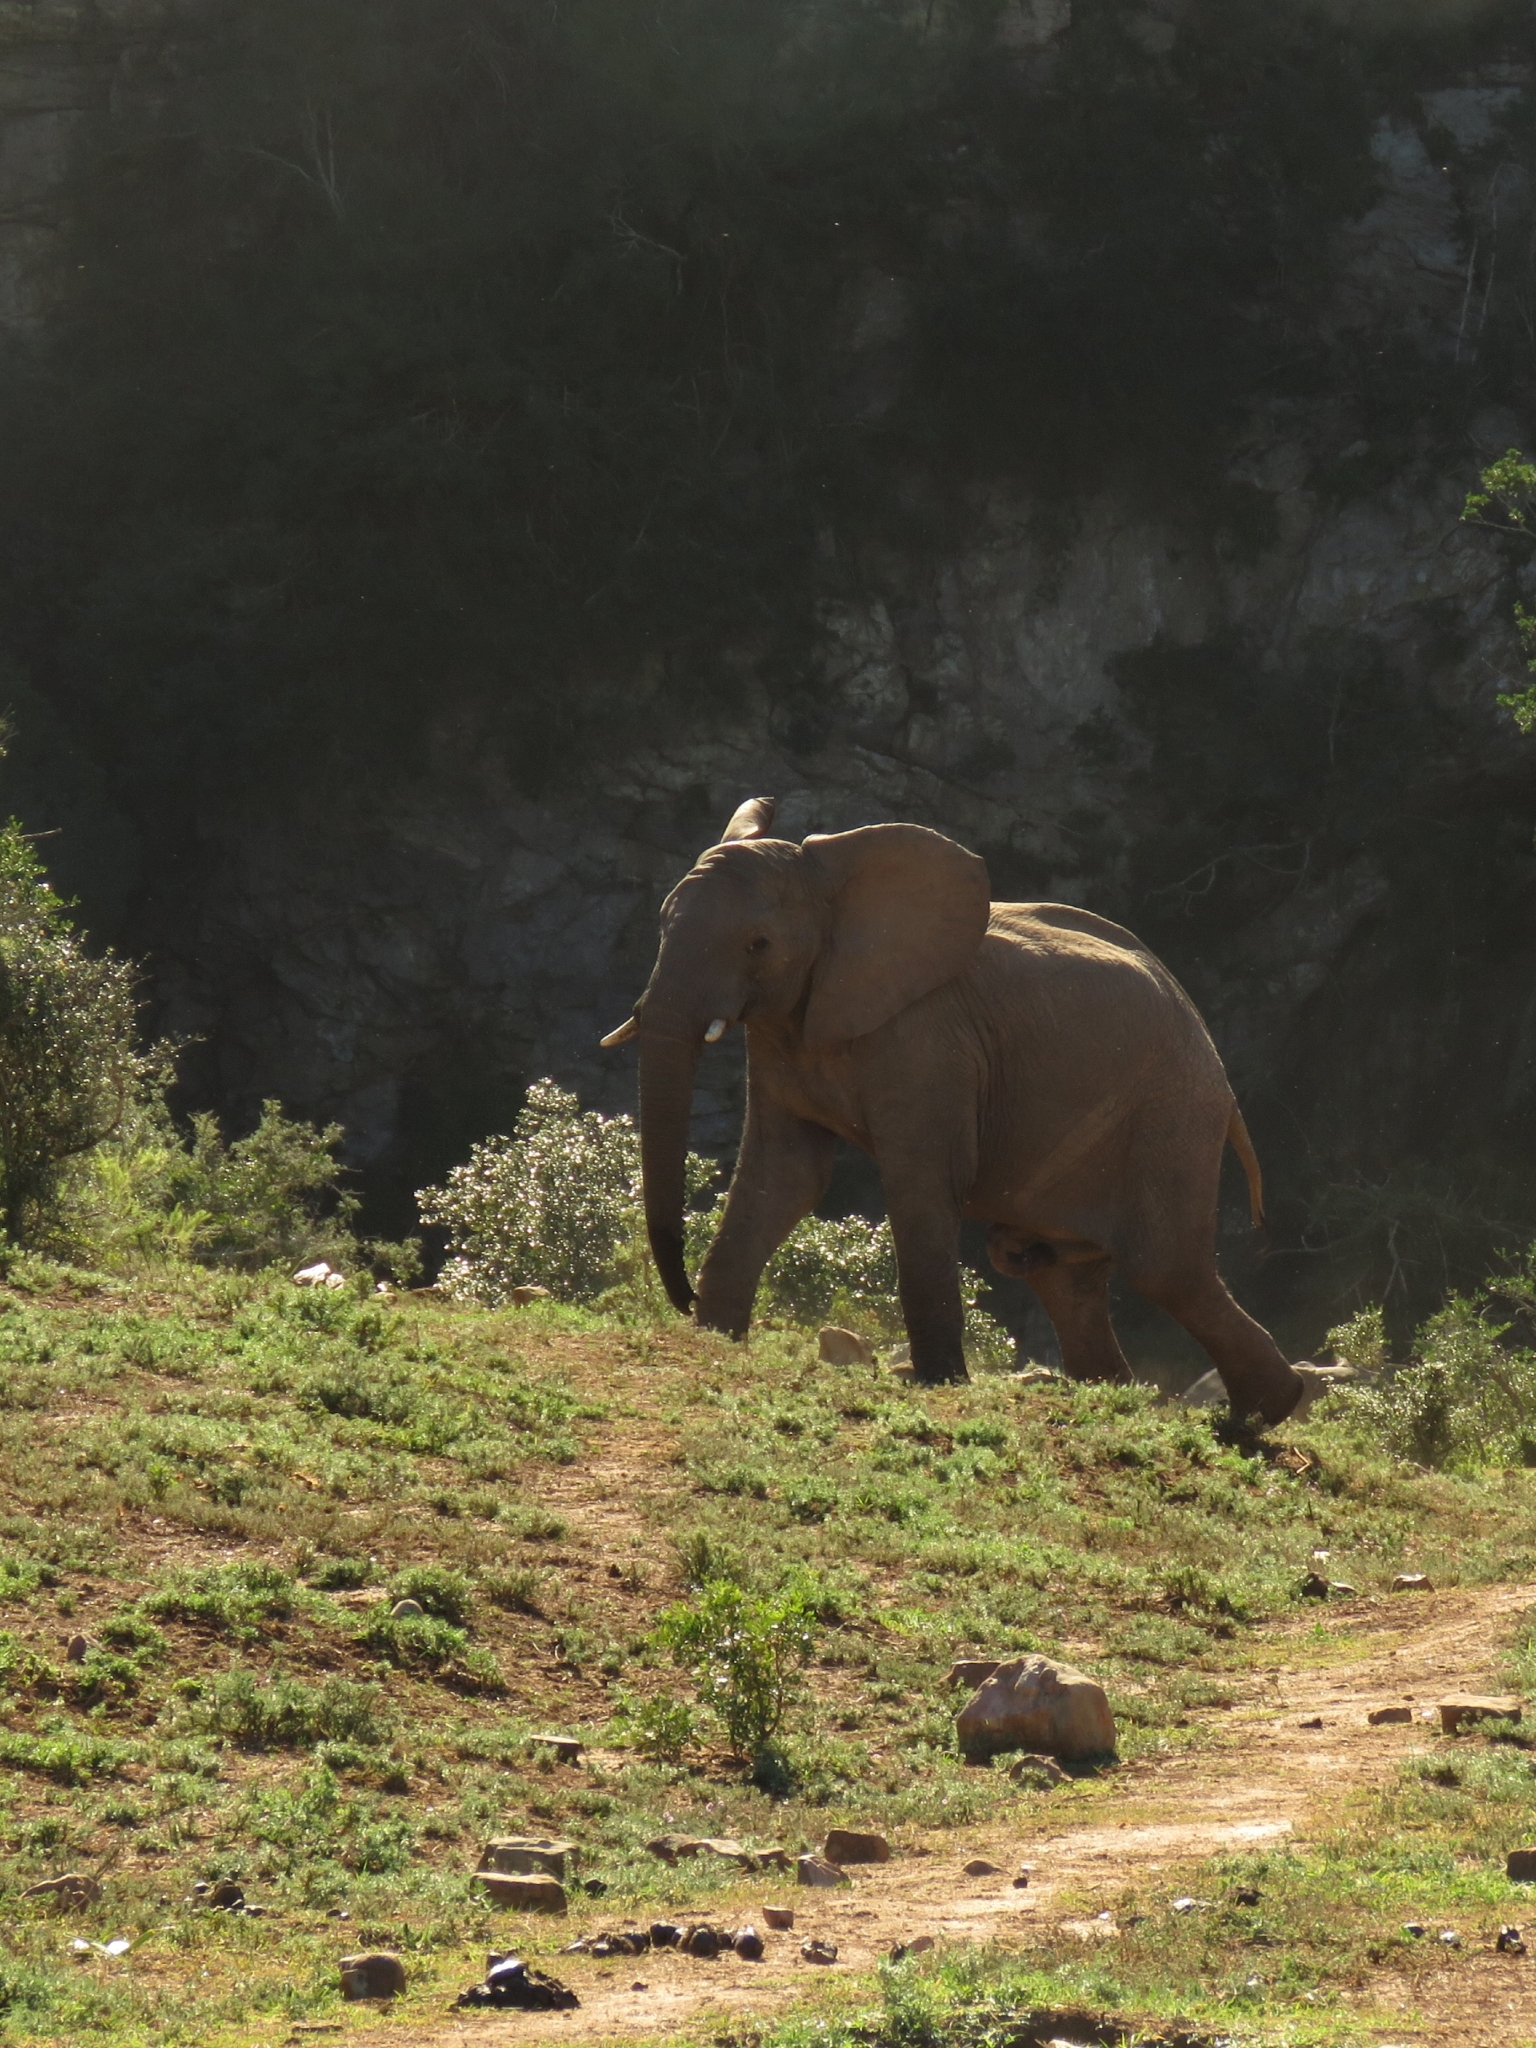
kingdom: Animalia
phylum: Chordata
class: Mammalia
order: Proboscidea
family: Elephantidae
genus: Loxodonta
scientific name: Loxodonta africana
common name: African elephant
